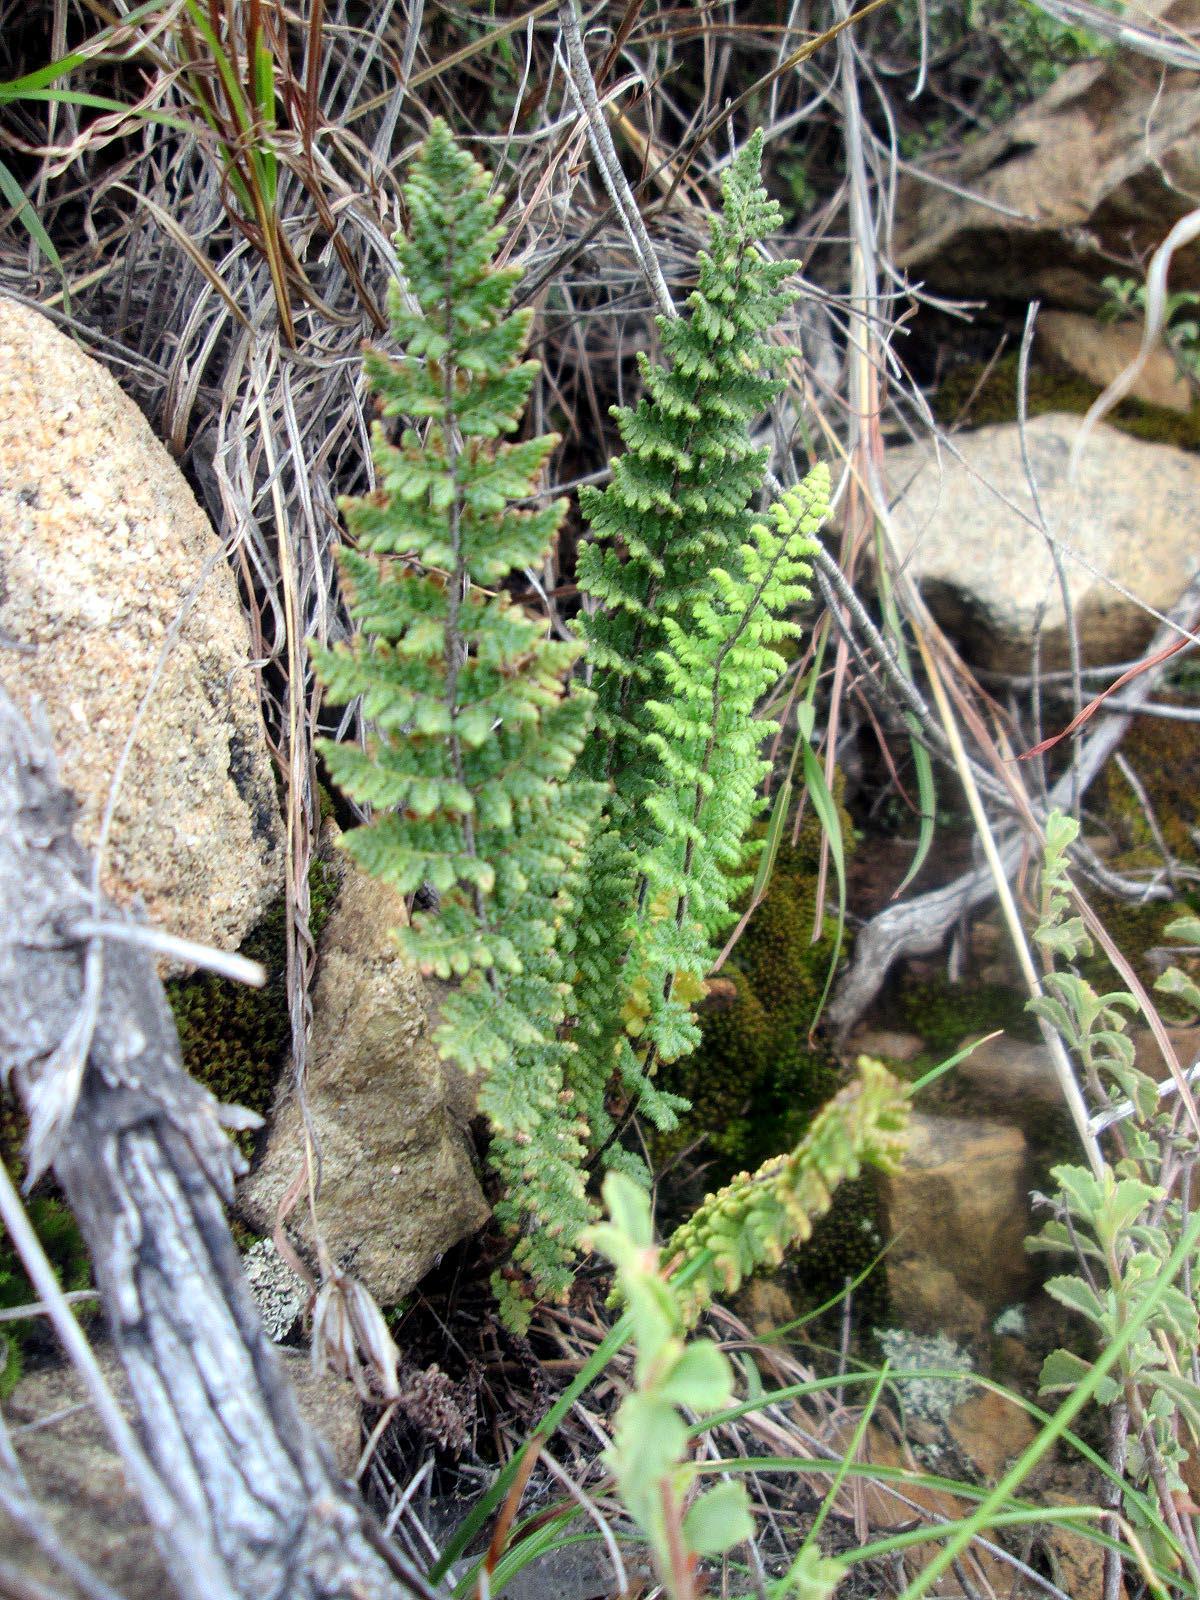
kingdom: Plantae
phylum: Tracheophyta
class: Polypodiopsida
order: Polypodiales
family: Pteridaceae
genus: Cheilanthes
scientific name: Cheilanthes contracta
